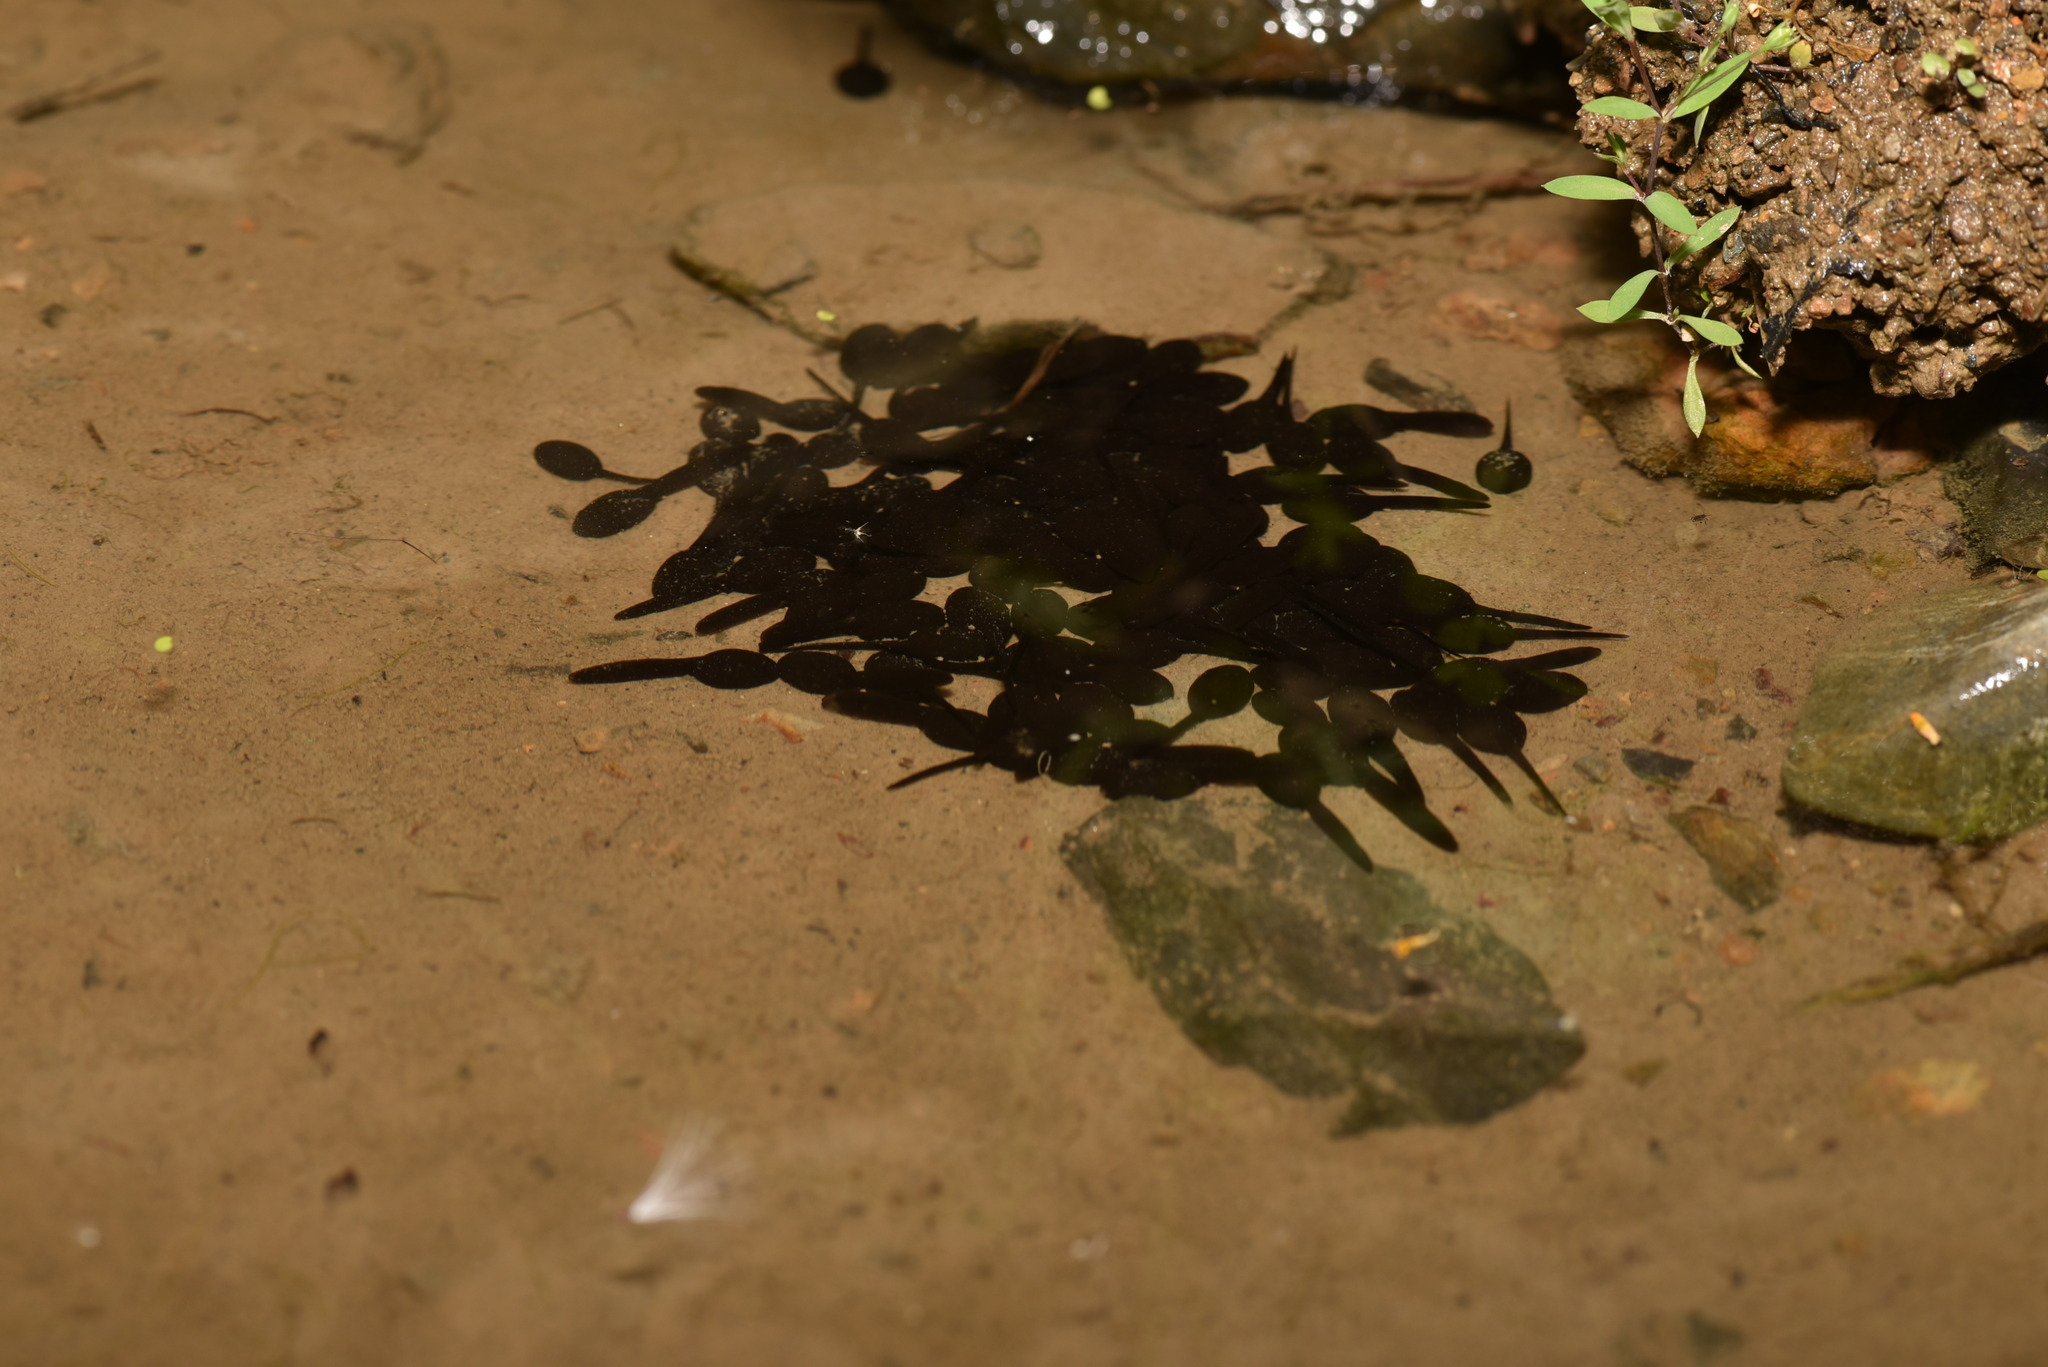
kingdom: Animalia
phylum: Chordata
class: Amphibia
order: Anura
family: Bufonidae
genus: Bufo
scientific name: Bufo bankorensis
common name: Bankor toad
